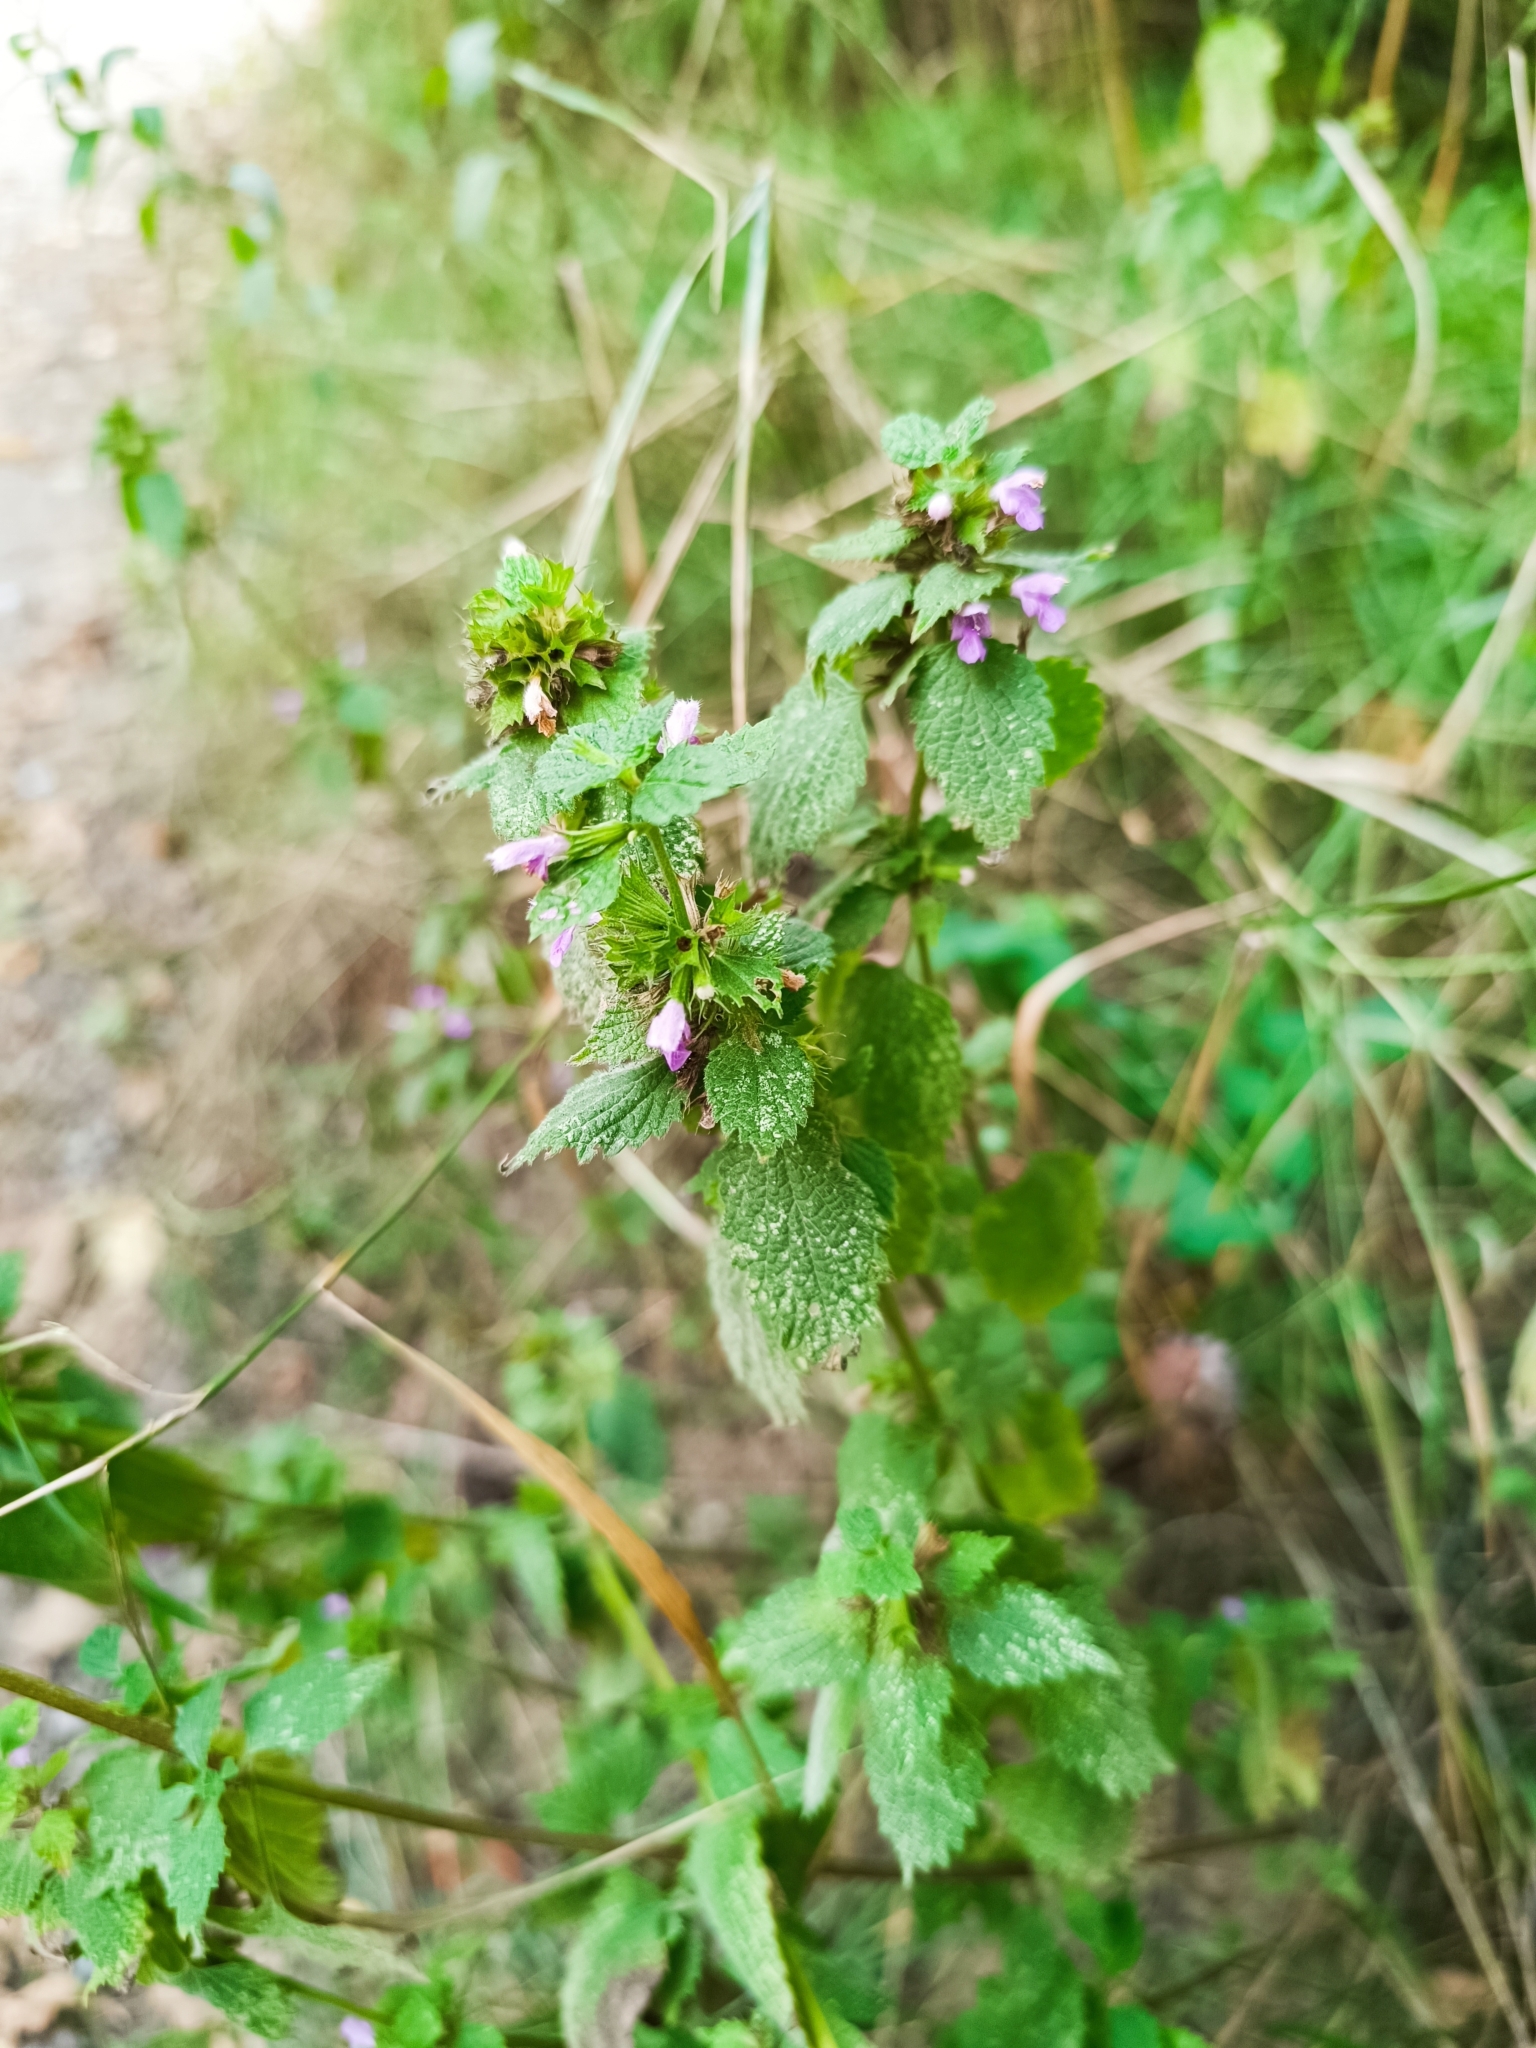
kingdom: Plantae
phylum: Tracheophyta
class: Magnoliopsida
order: Lamiales
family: Lamiaceae
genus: Ballota
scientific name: Ballota nigra
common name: Black horehound
